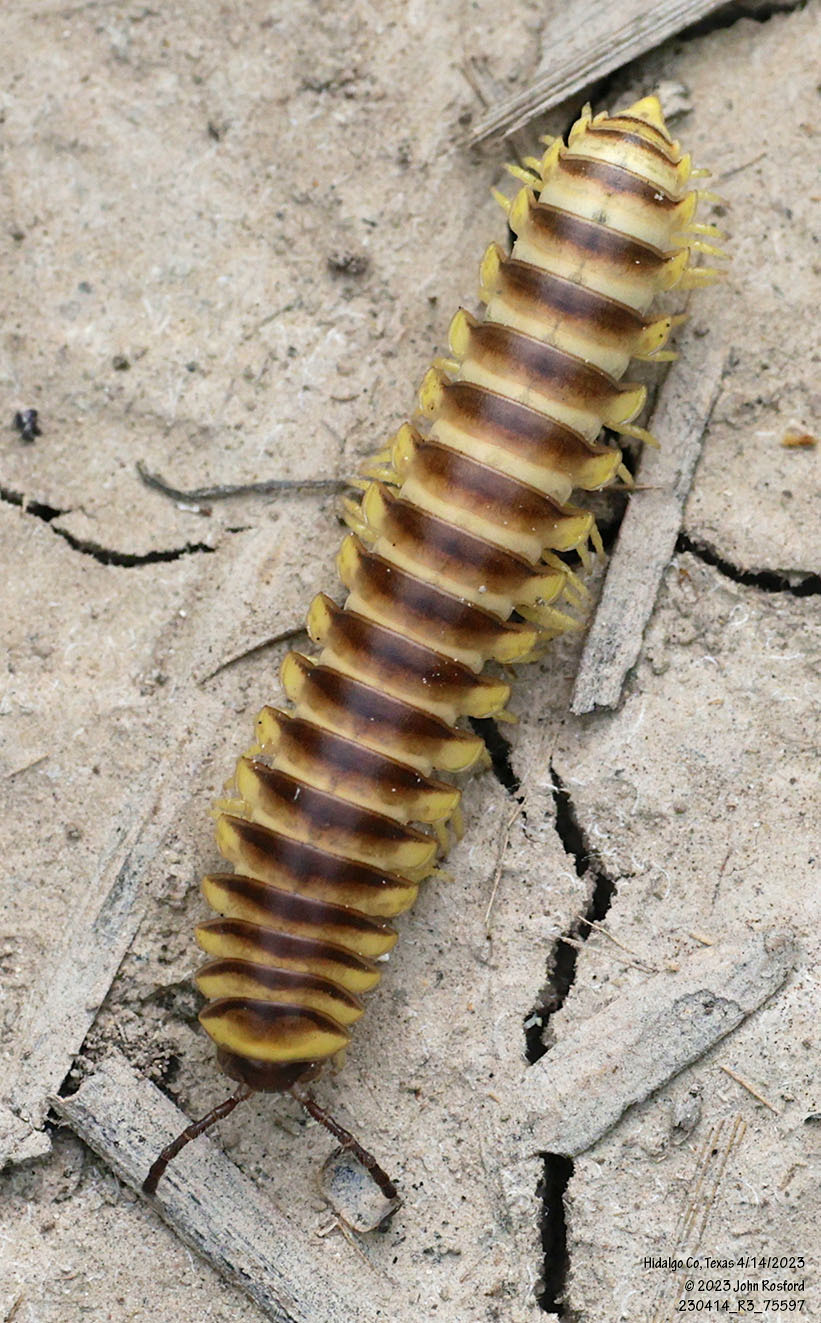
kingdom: Animalia
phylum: Arthropoda
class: Diplopoda
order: Polydesmida
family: Xystodesmidae
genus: Aporiaria
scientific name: Aporiaria texicolens
